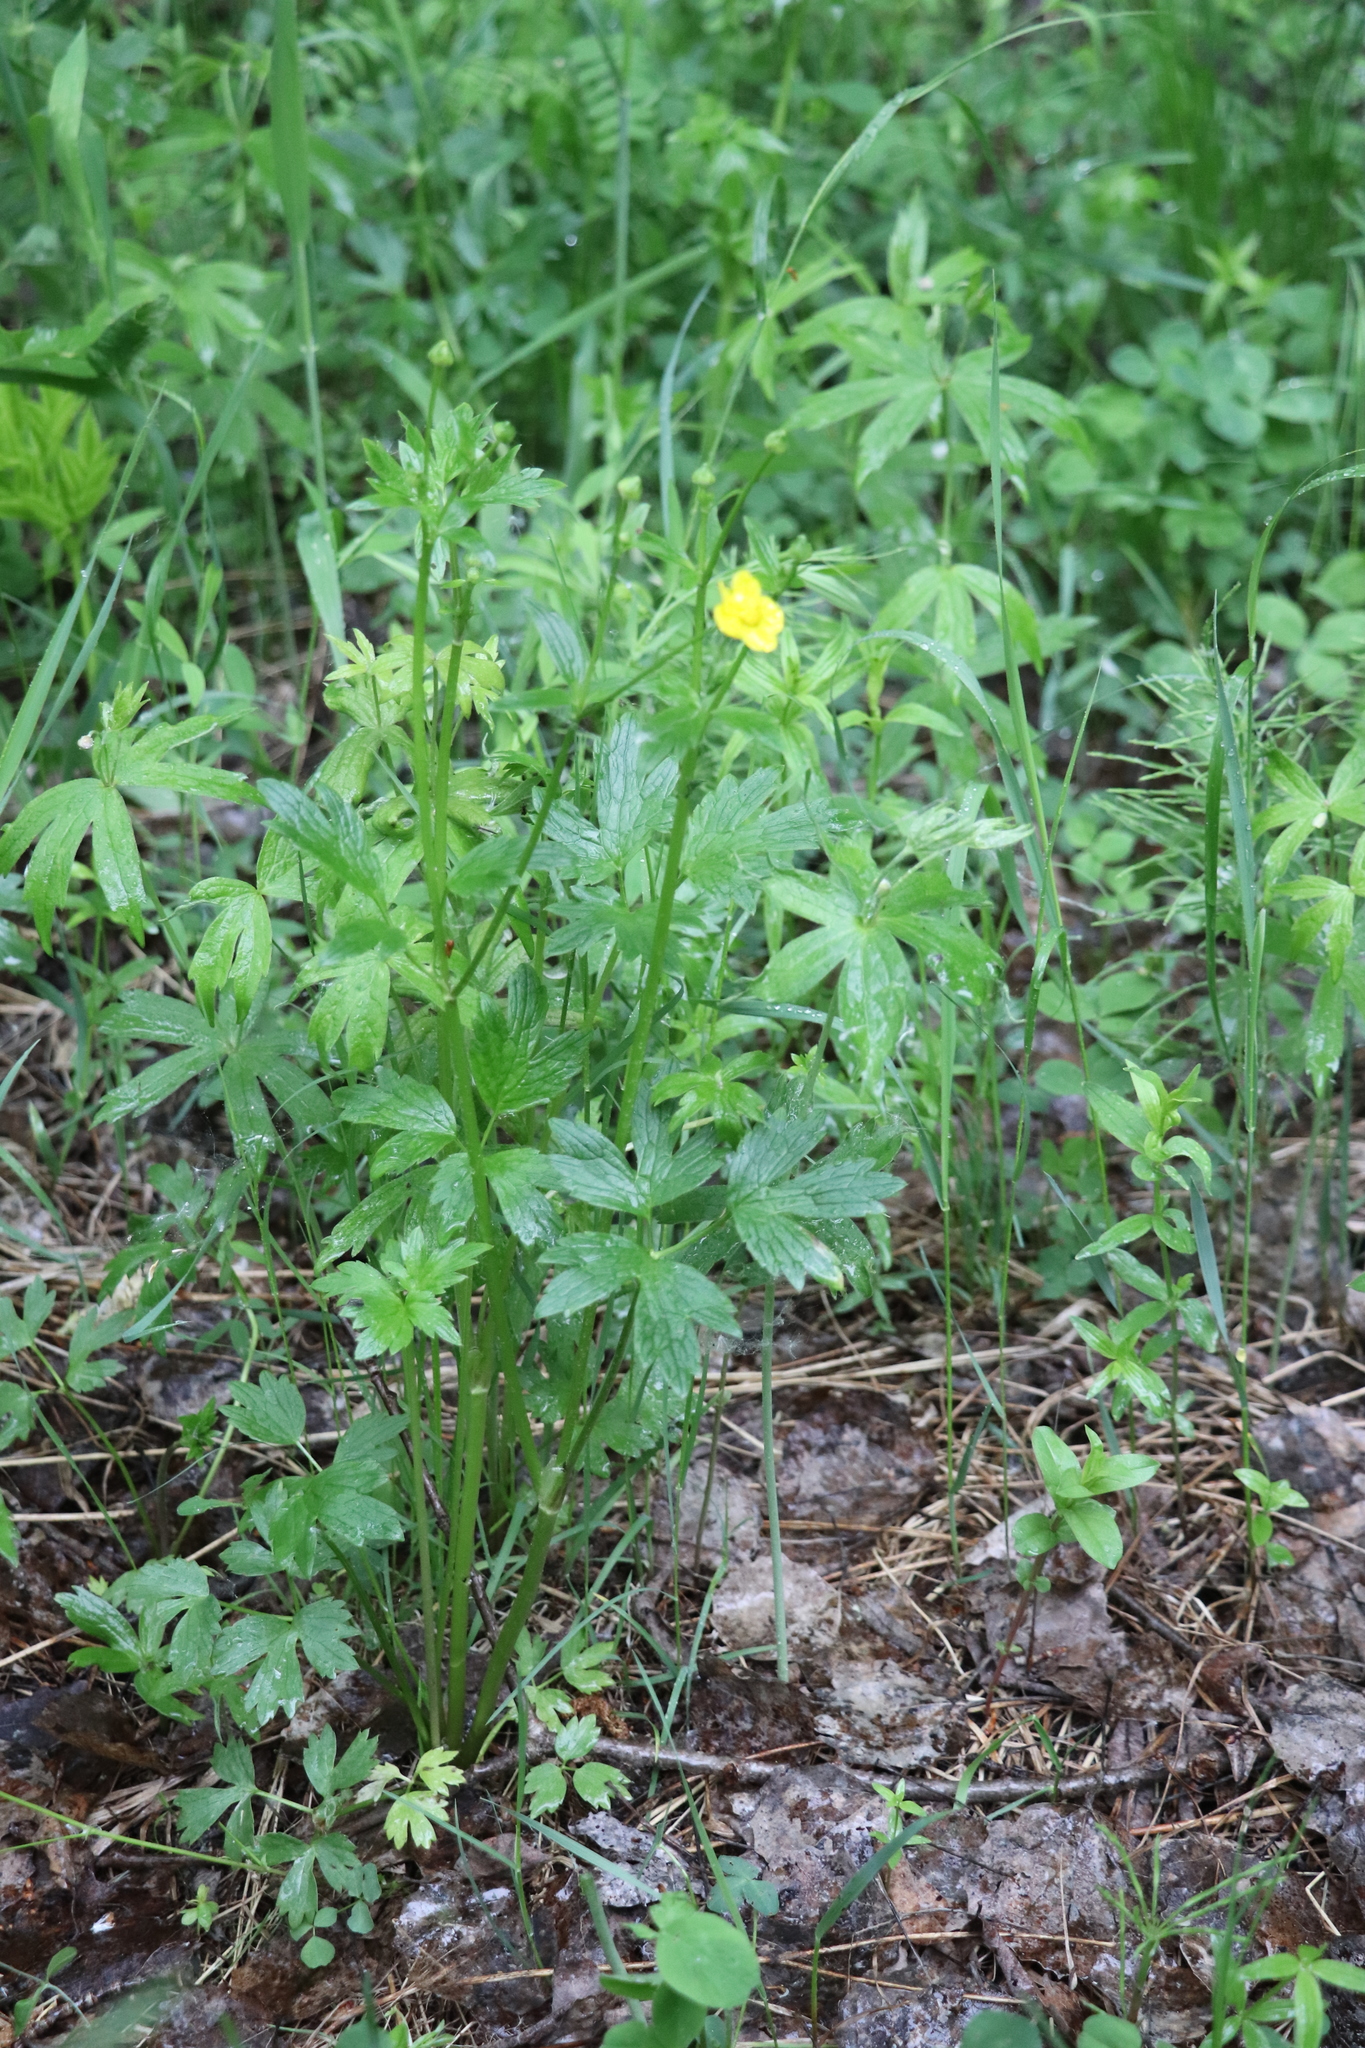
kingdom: Plantae
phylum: Tracheophyta
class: Magnoliopsida
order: Ranunculales
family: Ranunculaceae
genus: Ranunculus
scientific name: Ranunculus repens
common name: Creeping buttercup
